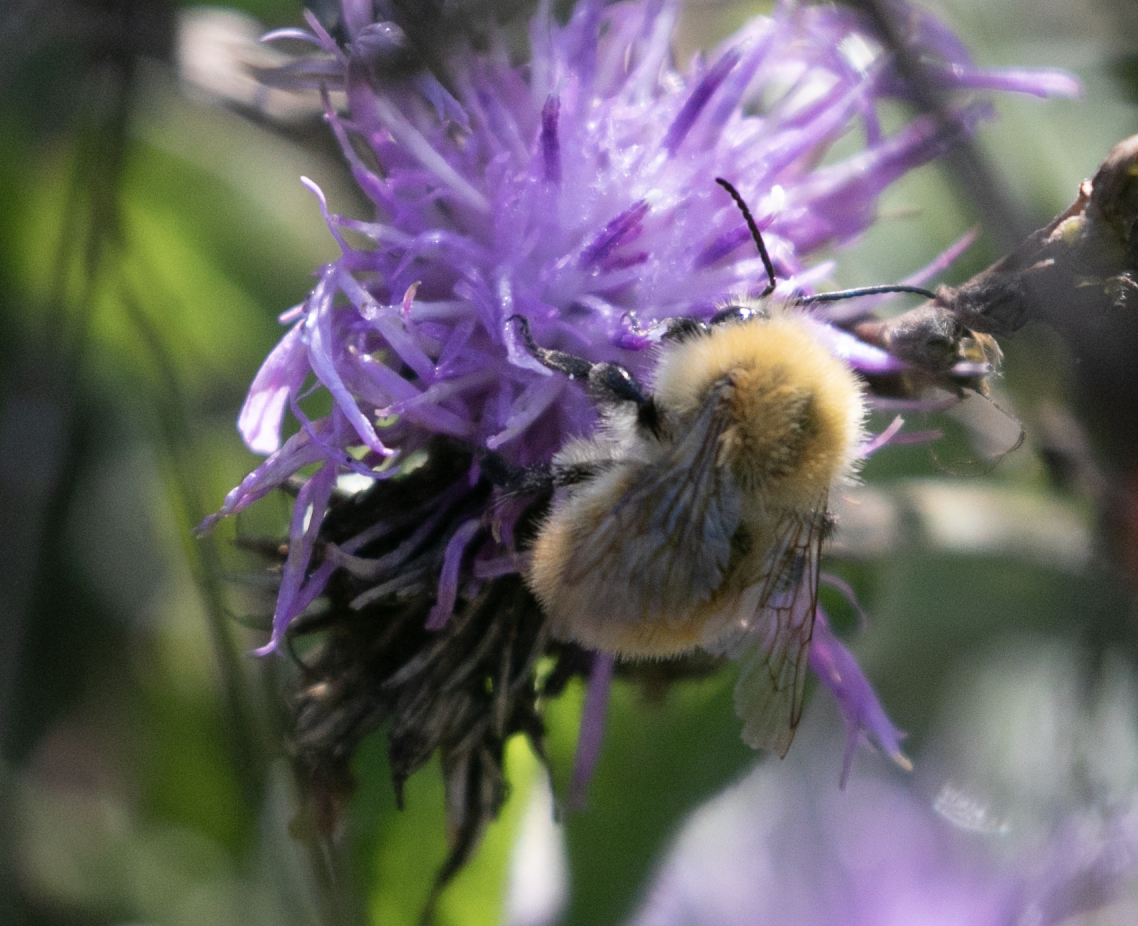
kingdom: Animalia
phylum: Arthropoda
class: Insecta
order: Hymenoptera
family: Apidae
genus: Bombus
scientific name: Bombus pascuorum
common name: Common carder bee
